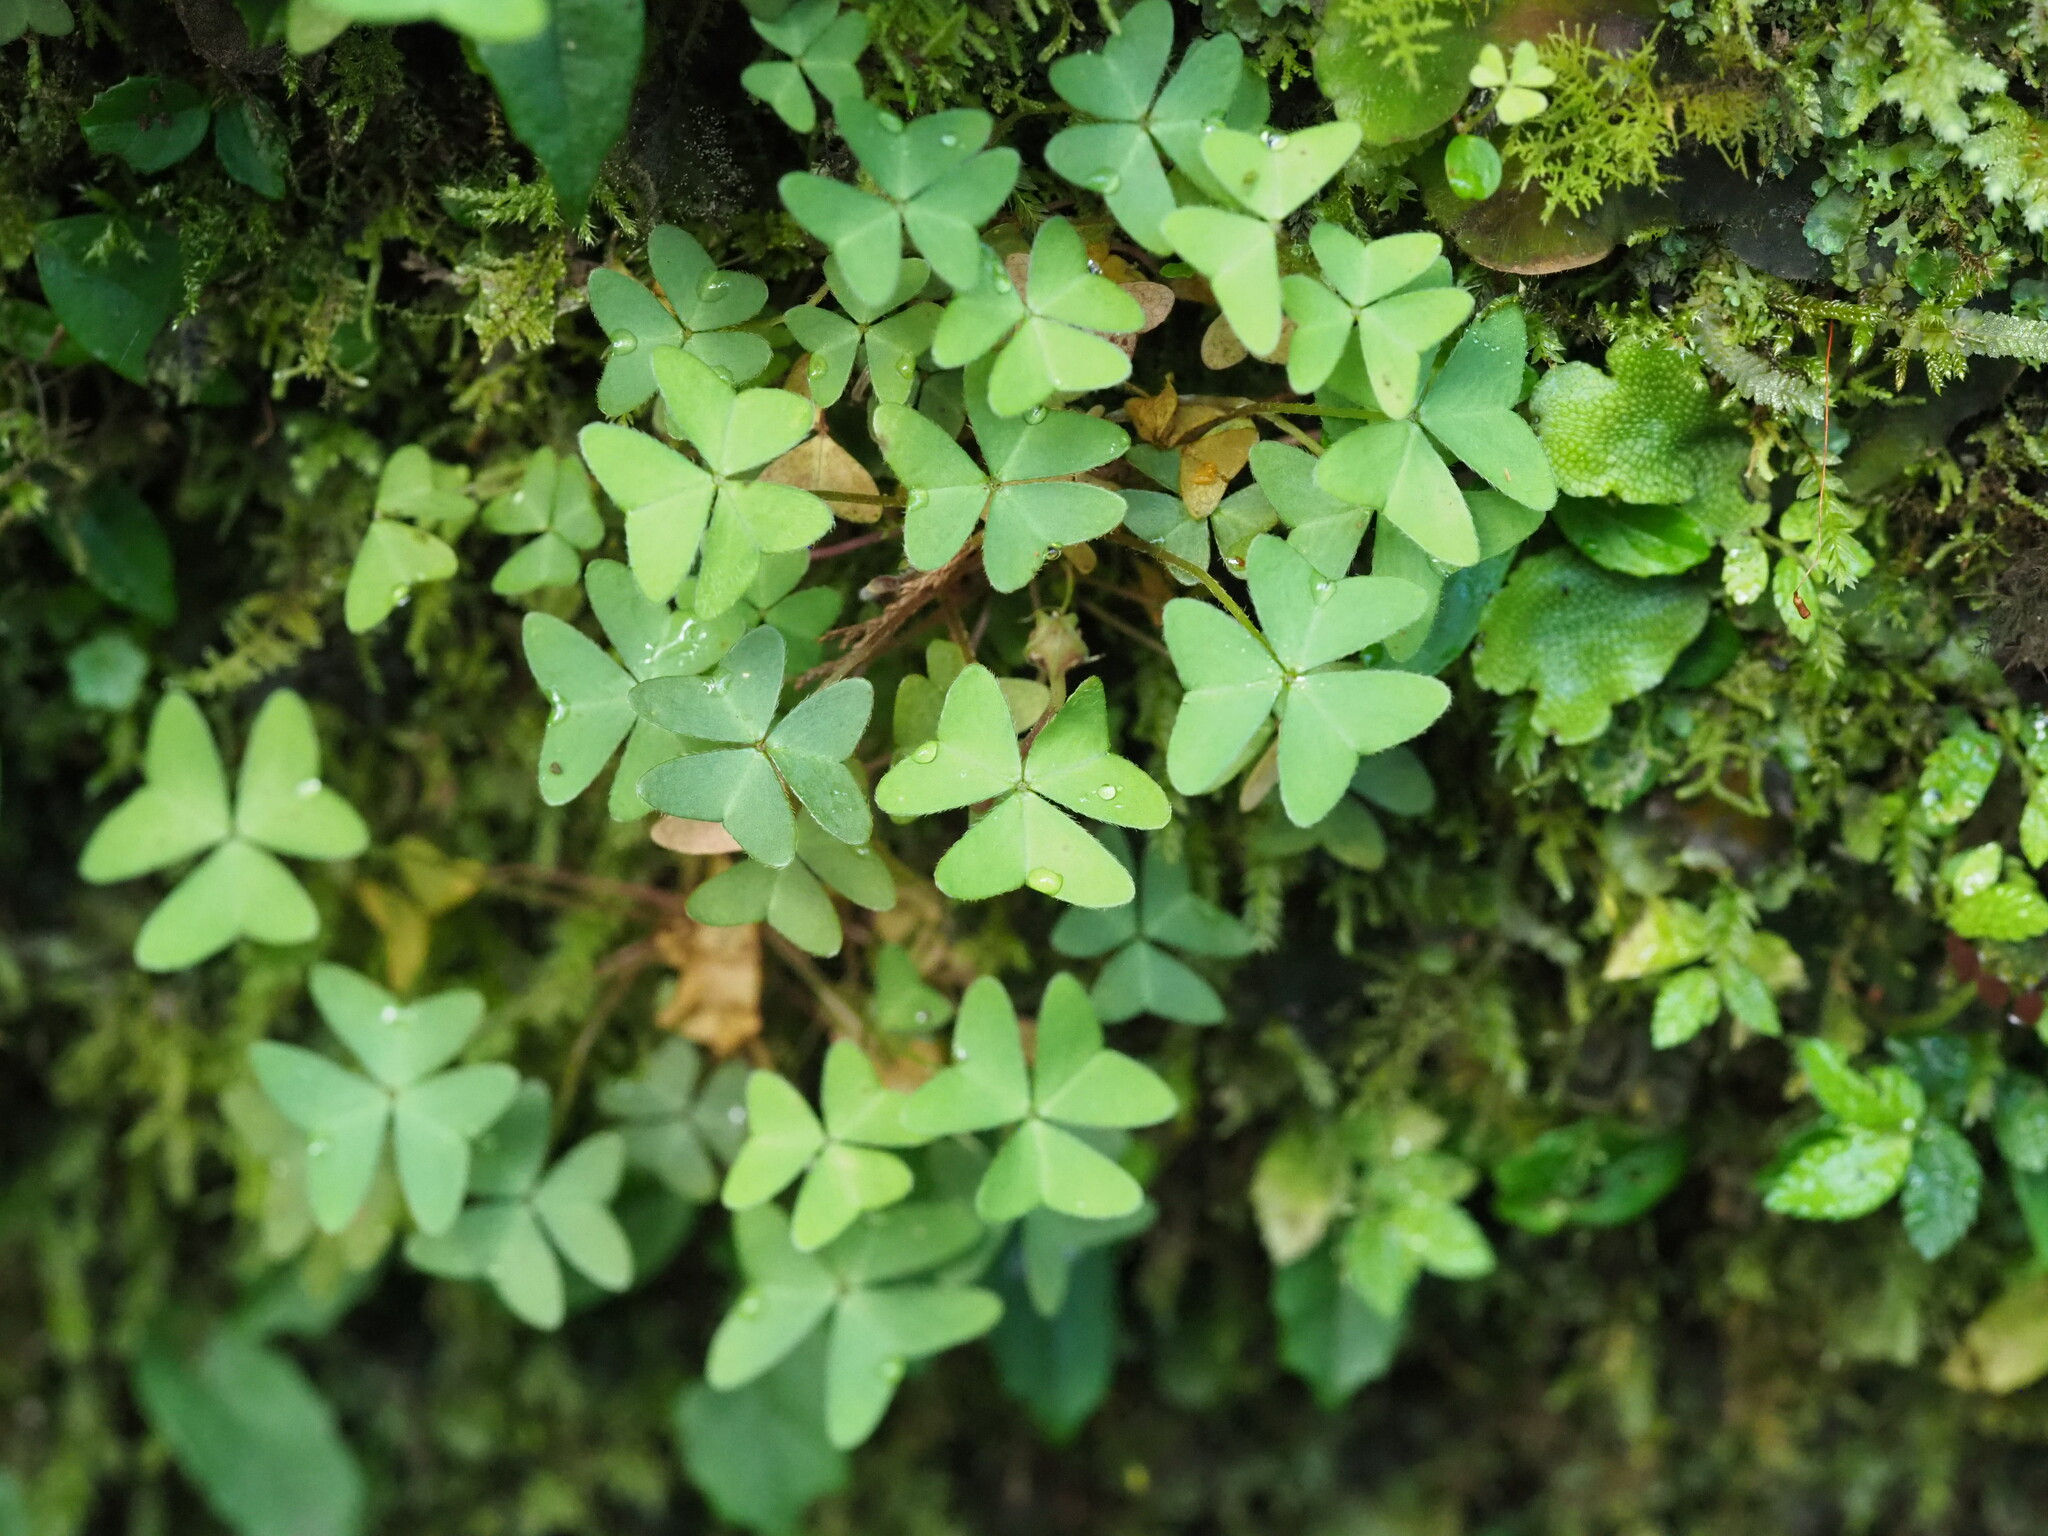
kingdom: Plantae
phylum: Tracheophyta
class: Magnoliopsida
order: Oxalidales
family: Oxalidaceae
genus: Oxalis
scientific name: Oxalis griffithii
